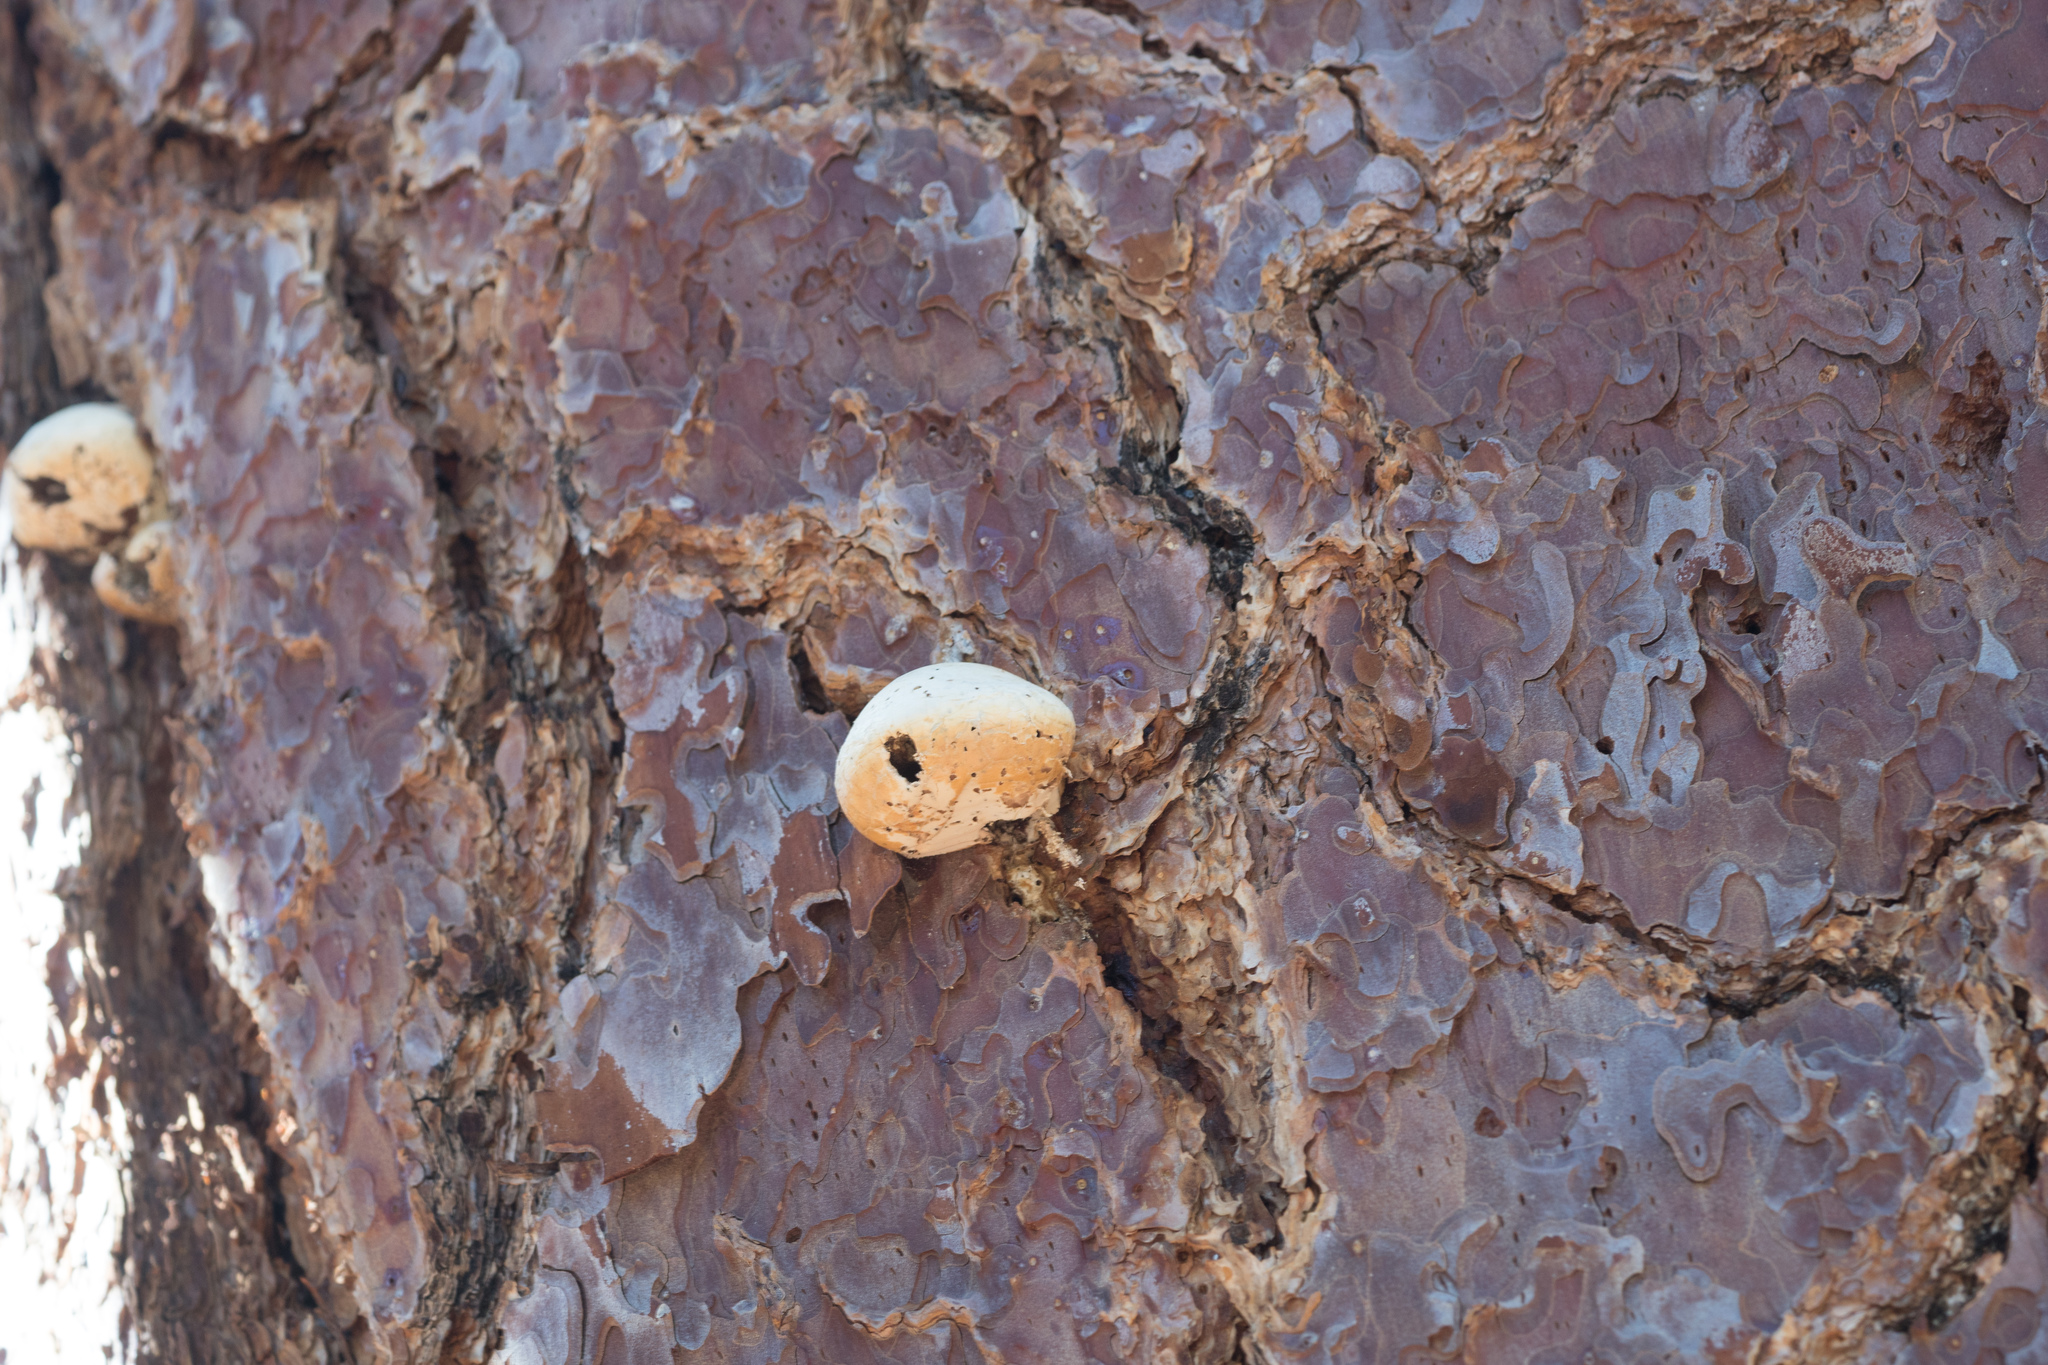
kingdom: Fungi
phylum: Basidiomycota
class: Agaricomycetes
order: Polyporales
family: Polyporaceae
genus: Cryptoporus
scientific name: Cryptoporus volvatus
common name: Veiled polypore
